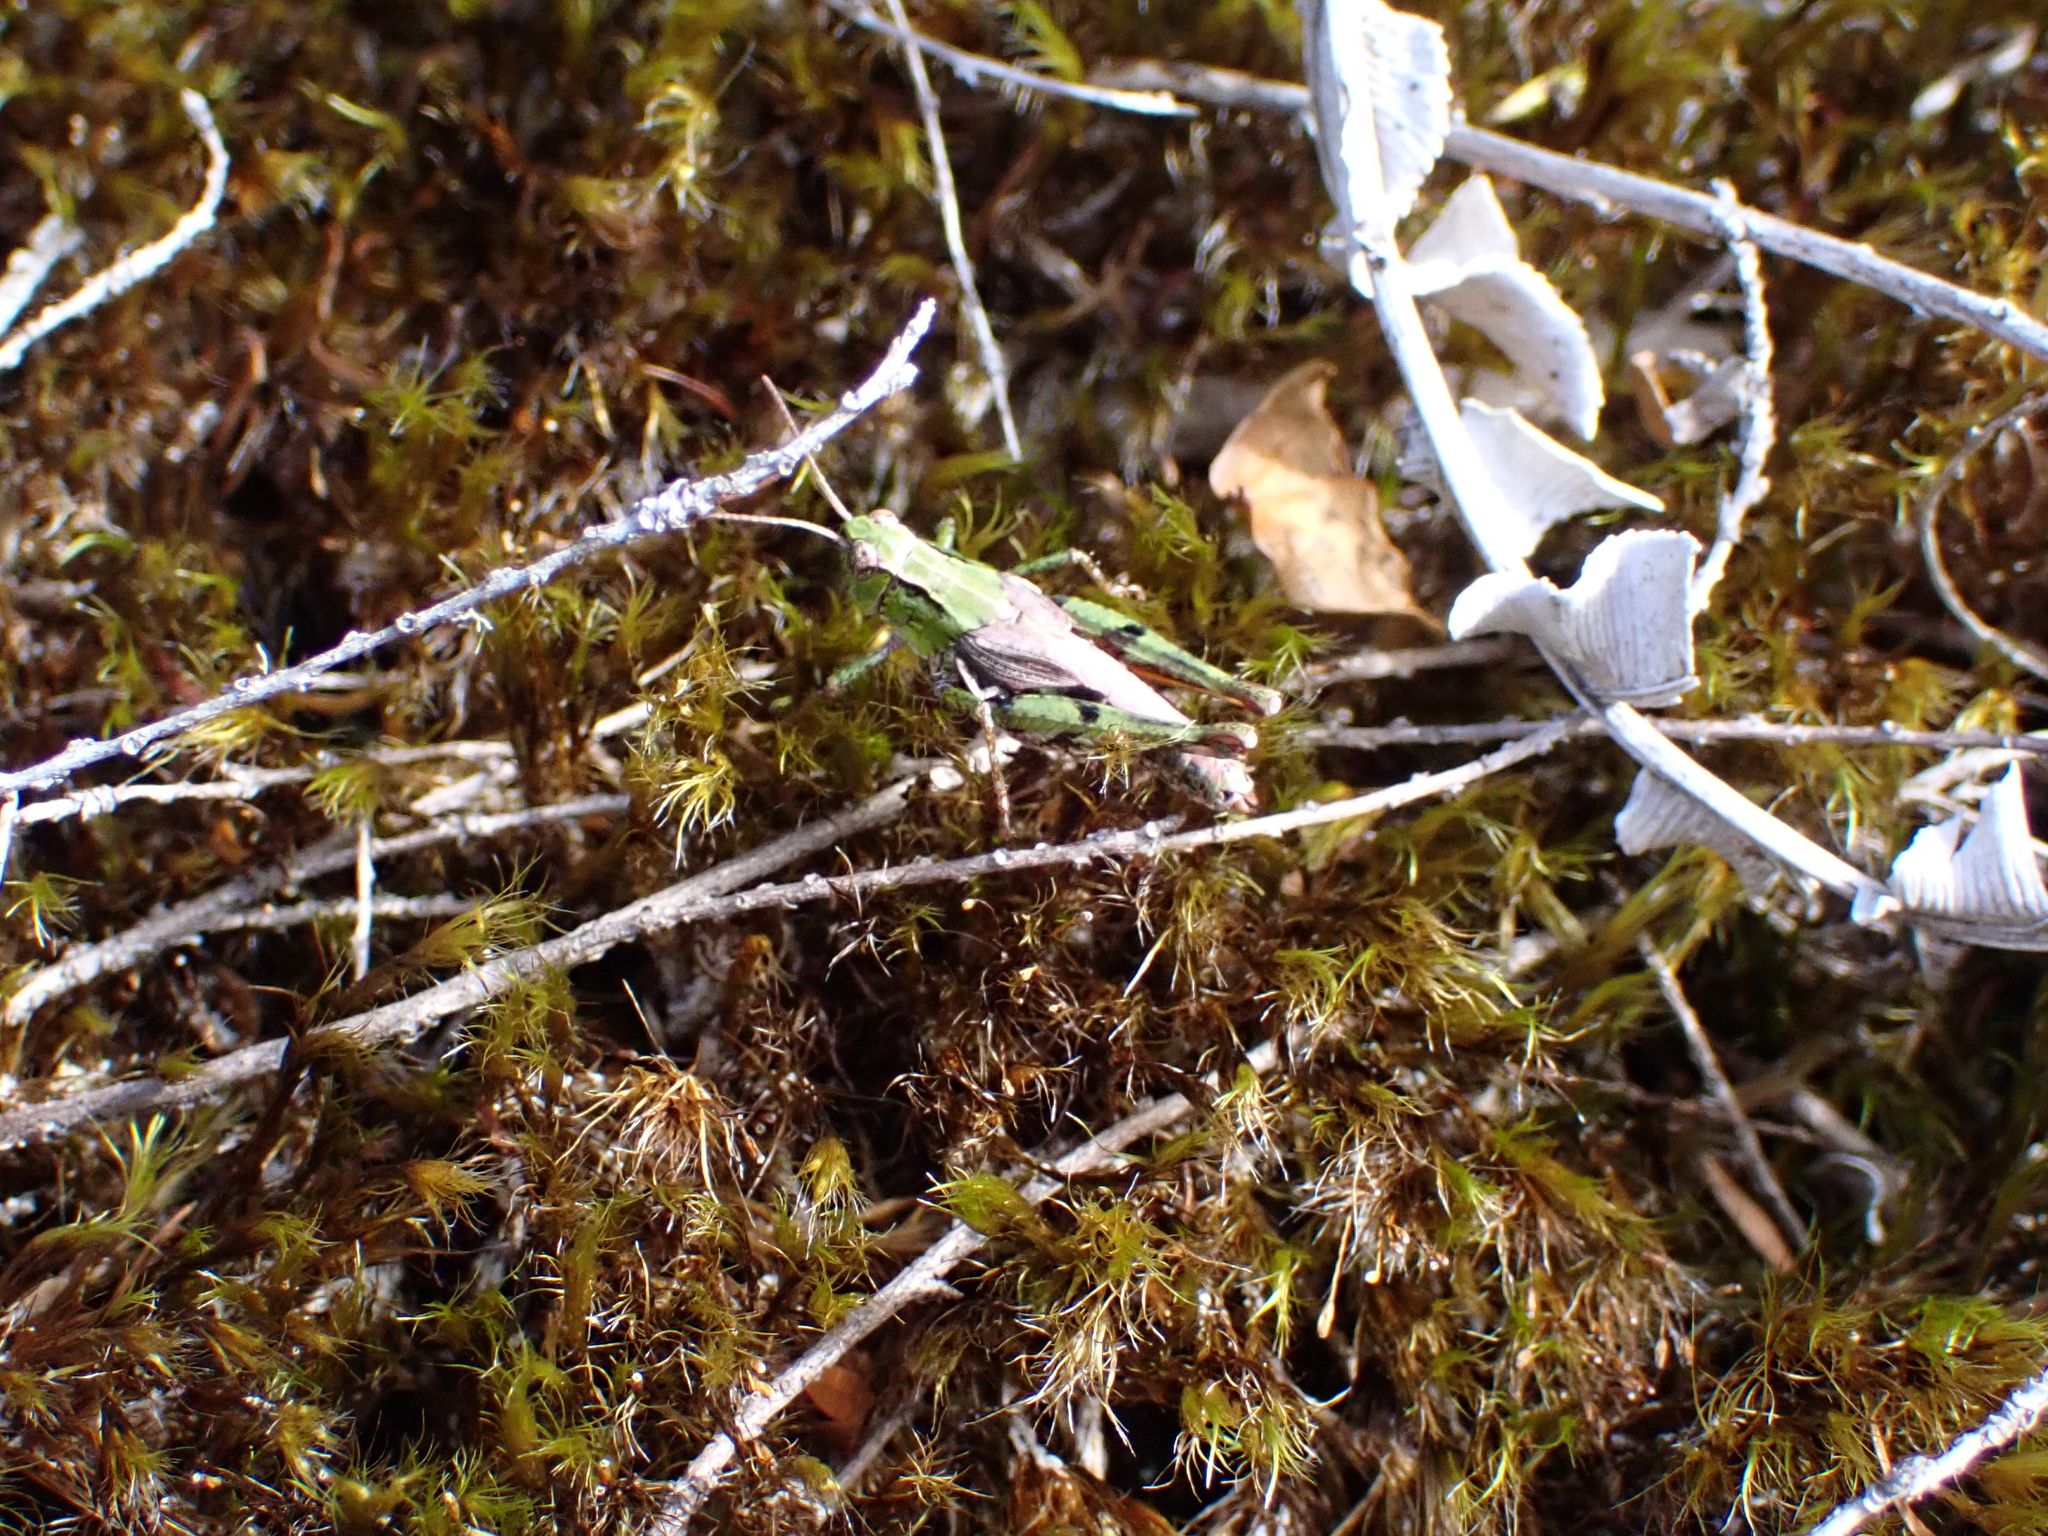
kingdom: Animalia
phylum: Arthropoda
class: Insecta
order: Orthoptera
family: Acrididae
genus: Phaulacridium
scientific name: Phaulacridium marginale
